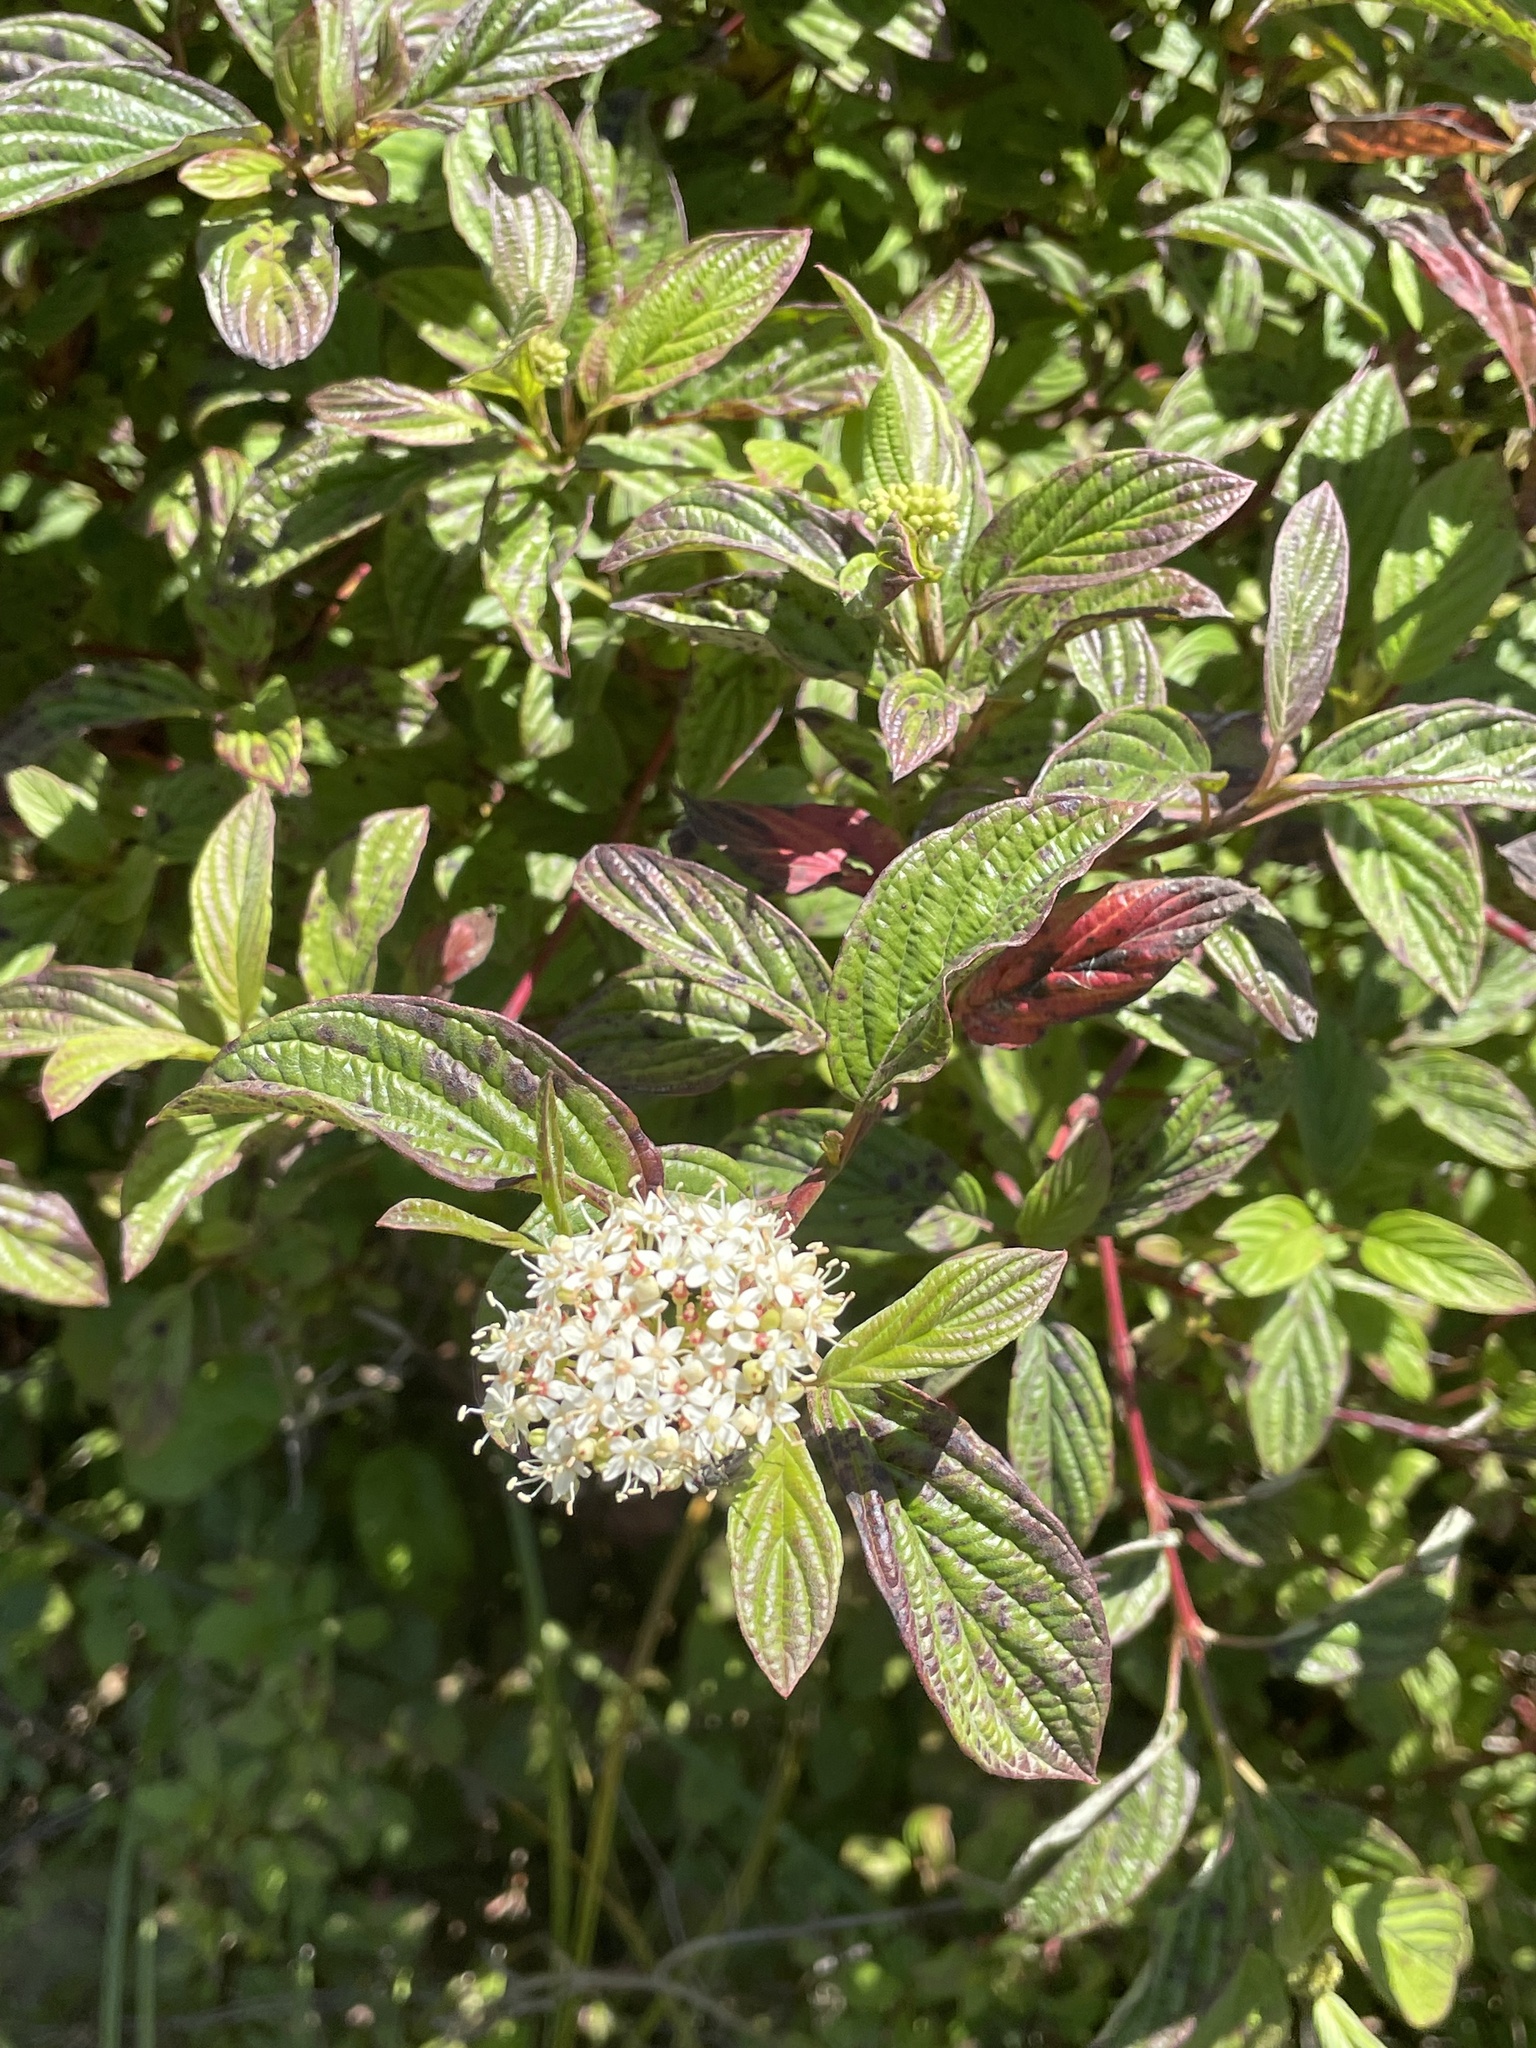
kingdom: Plantae
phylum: Tracheophyta
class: Magnoliopsida
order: Cornales
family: Cornaceae
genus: Cornus
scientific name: Cornus sericea
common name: Red-osier dogwood
